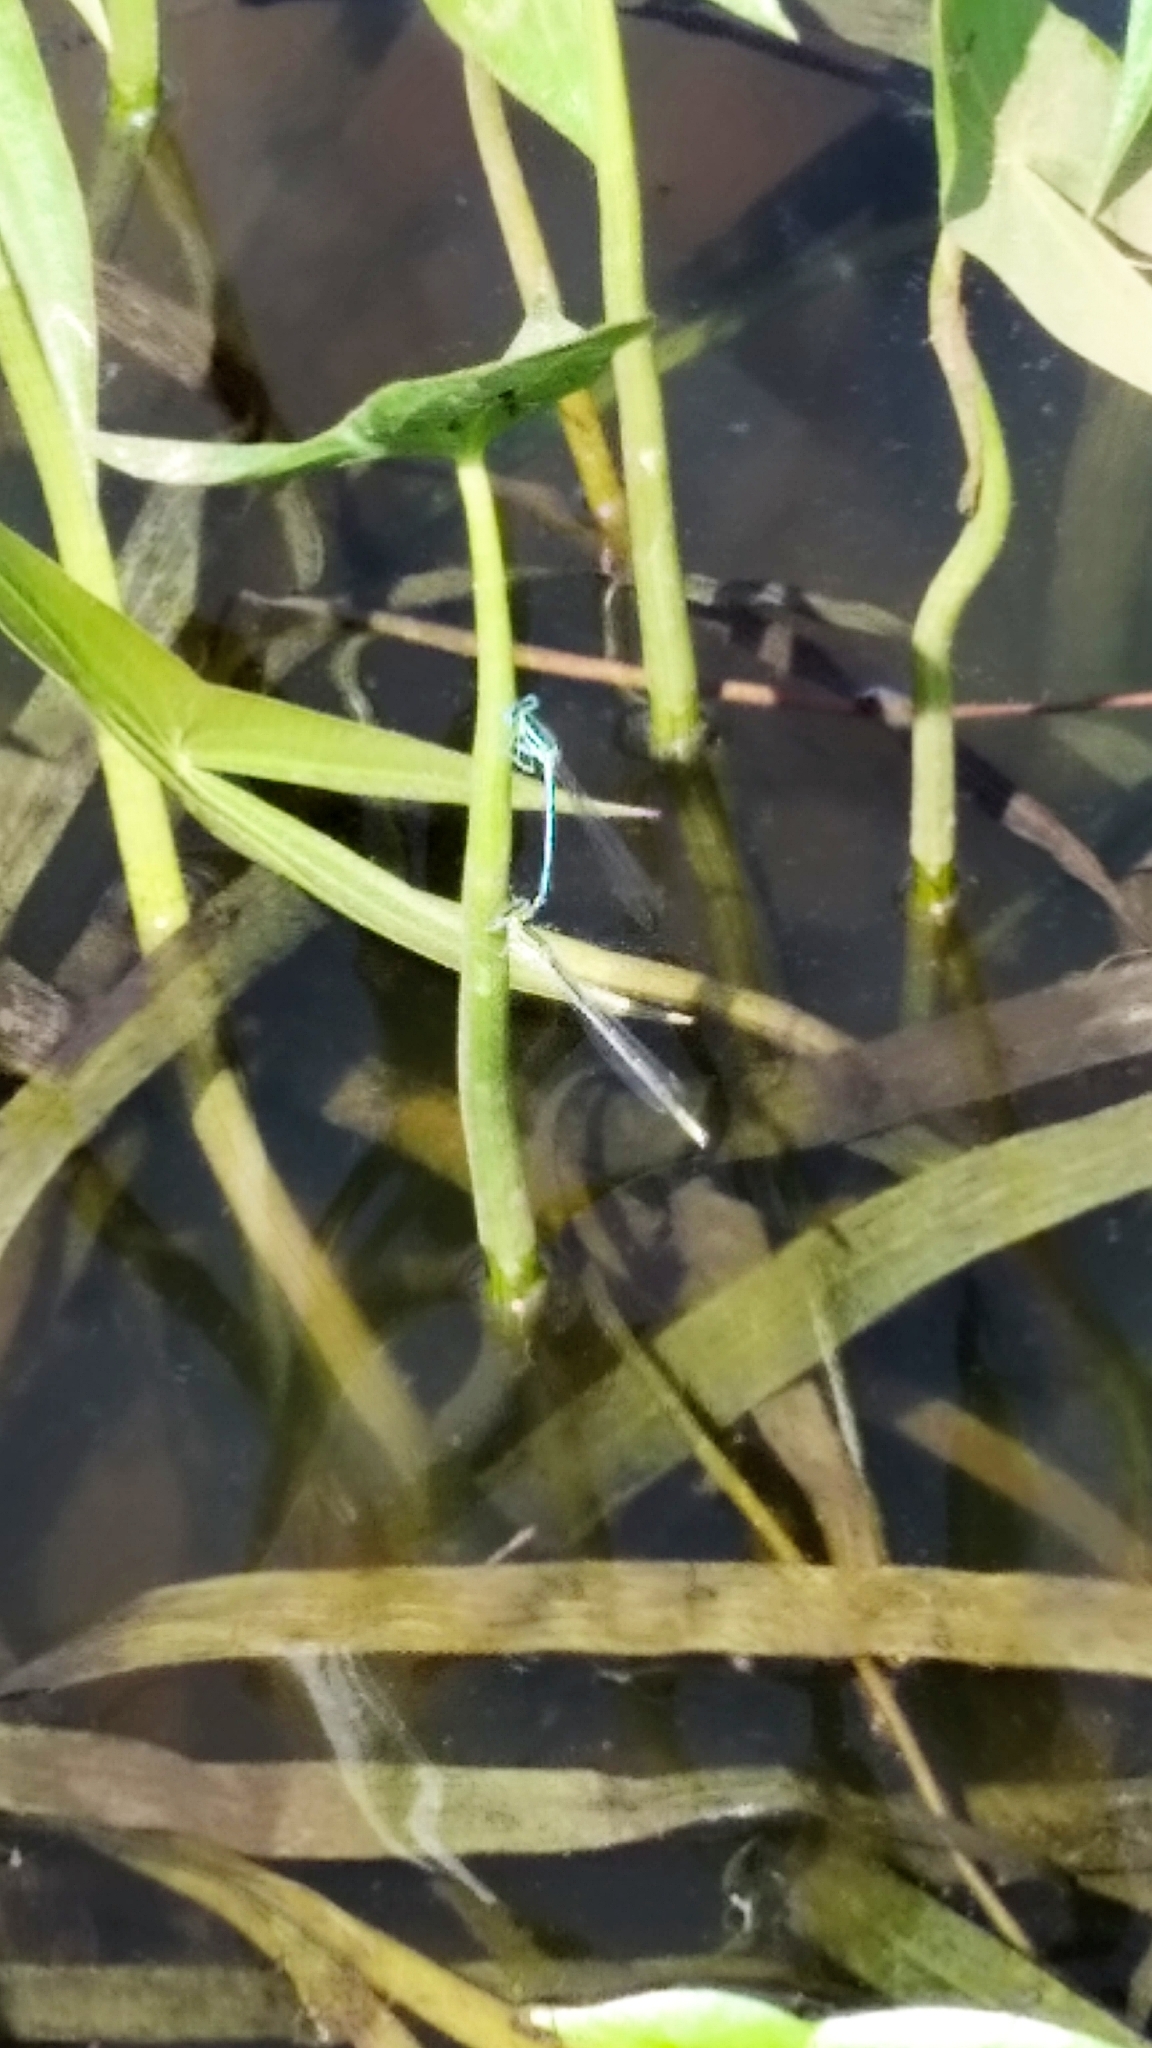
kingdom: Animalia
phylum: Arthropoda
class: Insecta
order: Odonata
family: Platycnemididae
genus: Platycnemis
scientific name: Platycnemis pennipes
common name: White-legged damselfly
